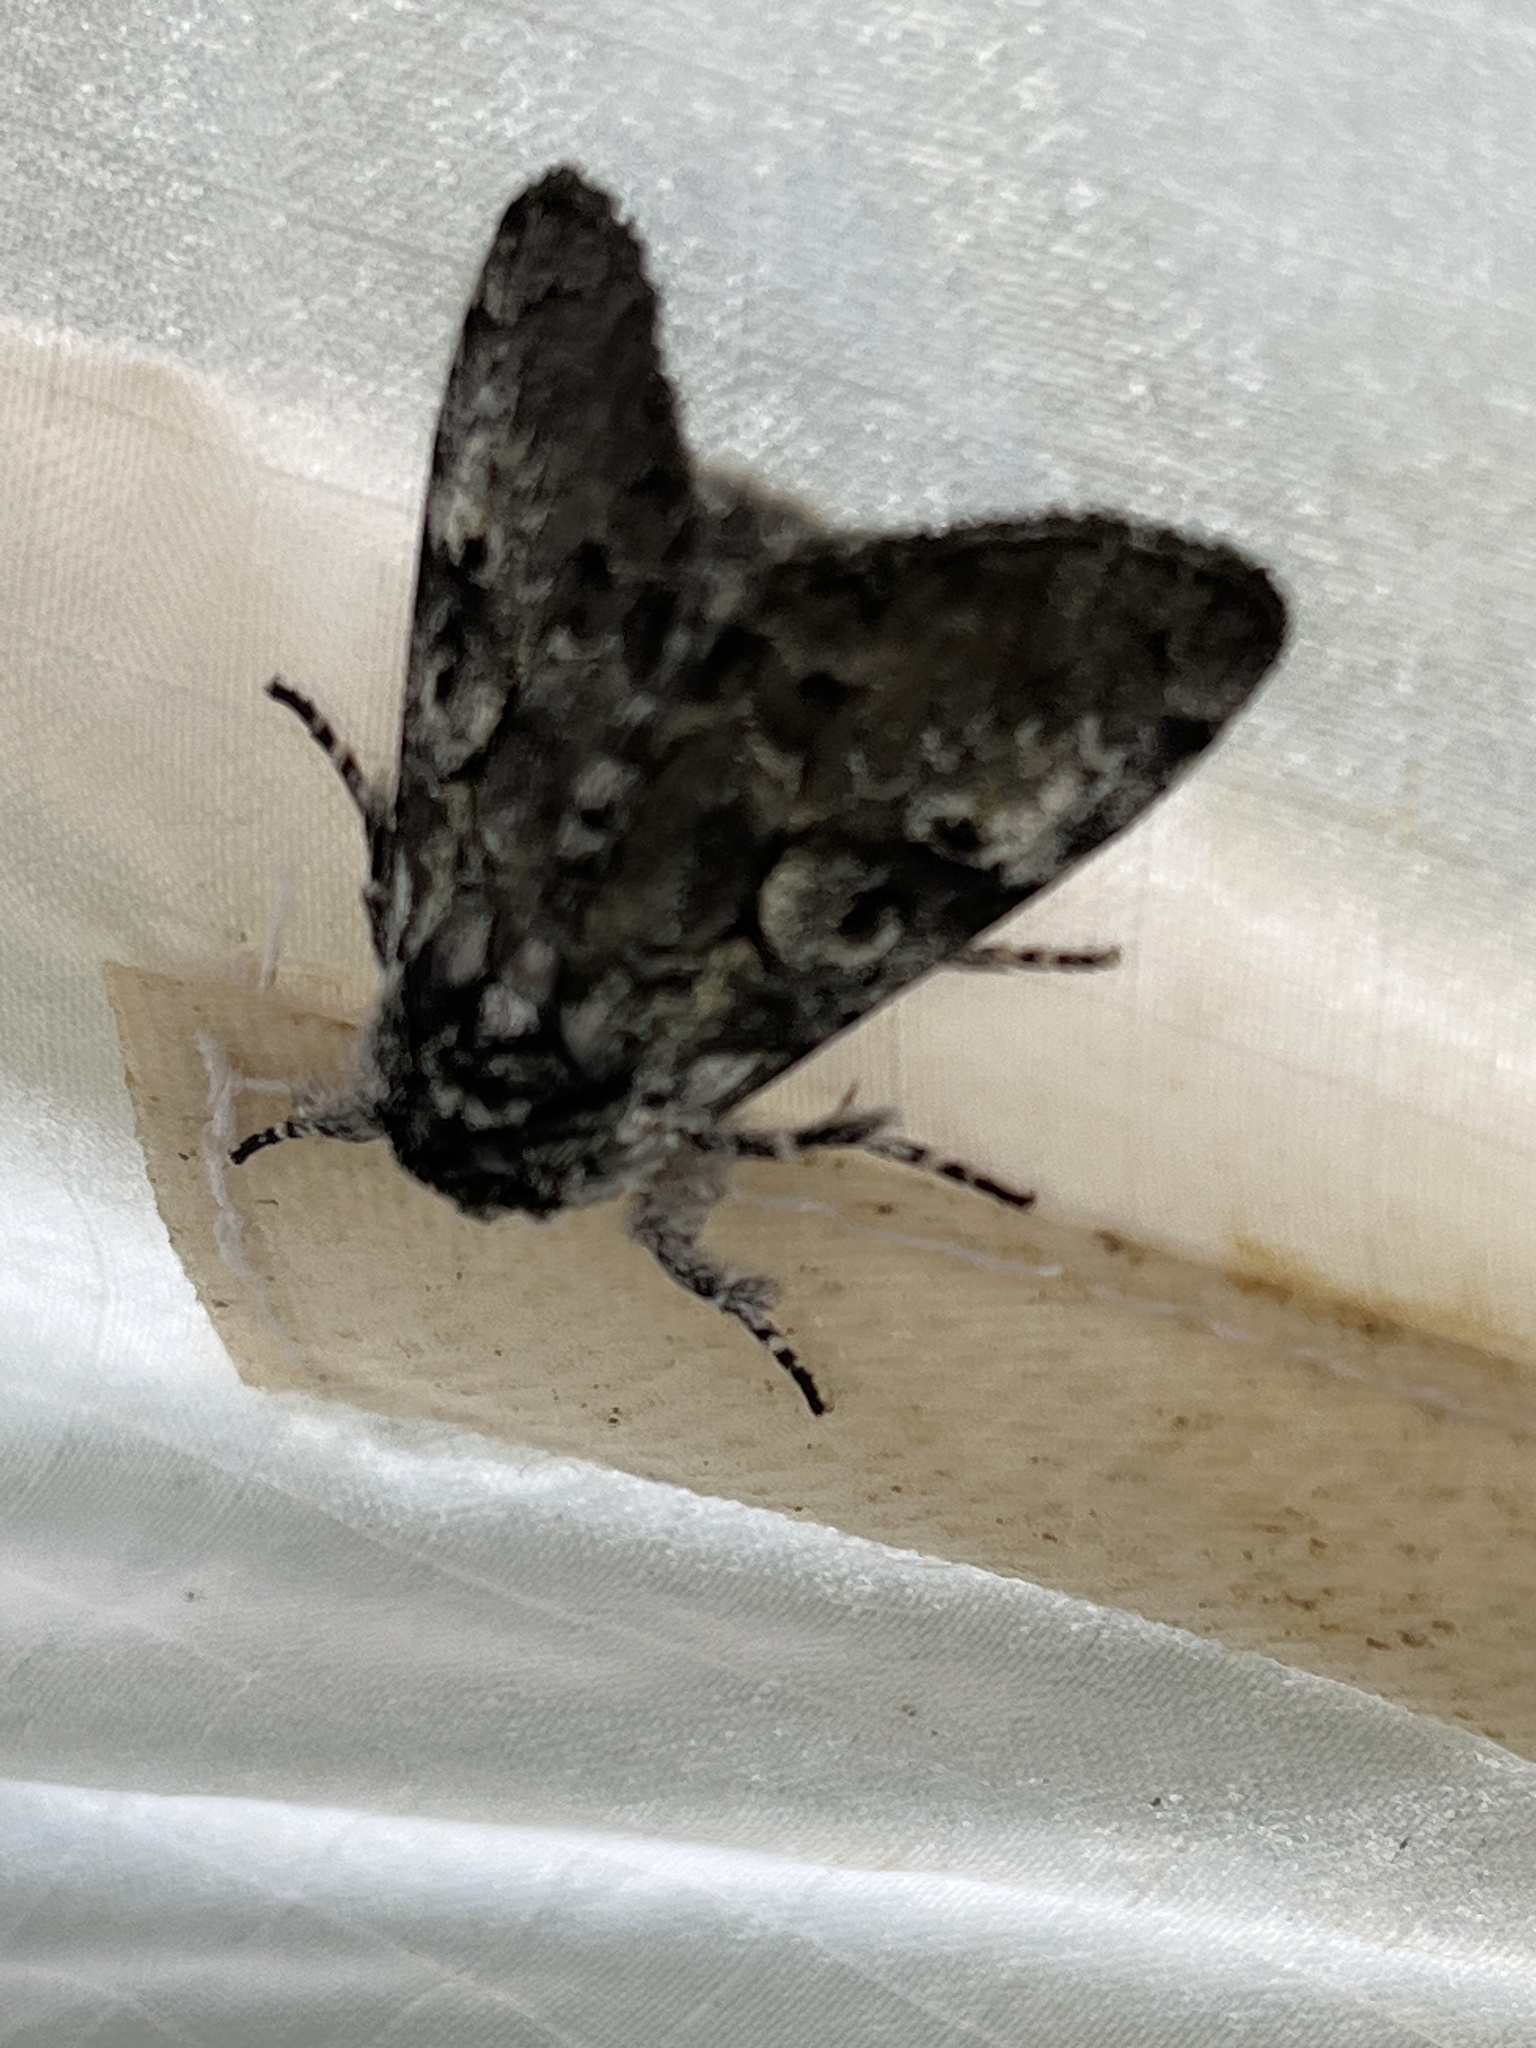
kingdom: Animalia
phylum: Arthropoda
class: Insecta
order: Lepidoptera
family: Noctuidae
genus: Charadra
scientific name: Charadra deridens
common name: Marbled tuffet
